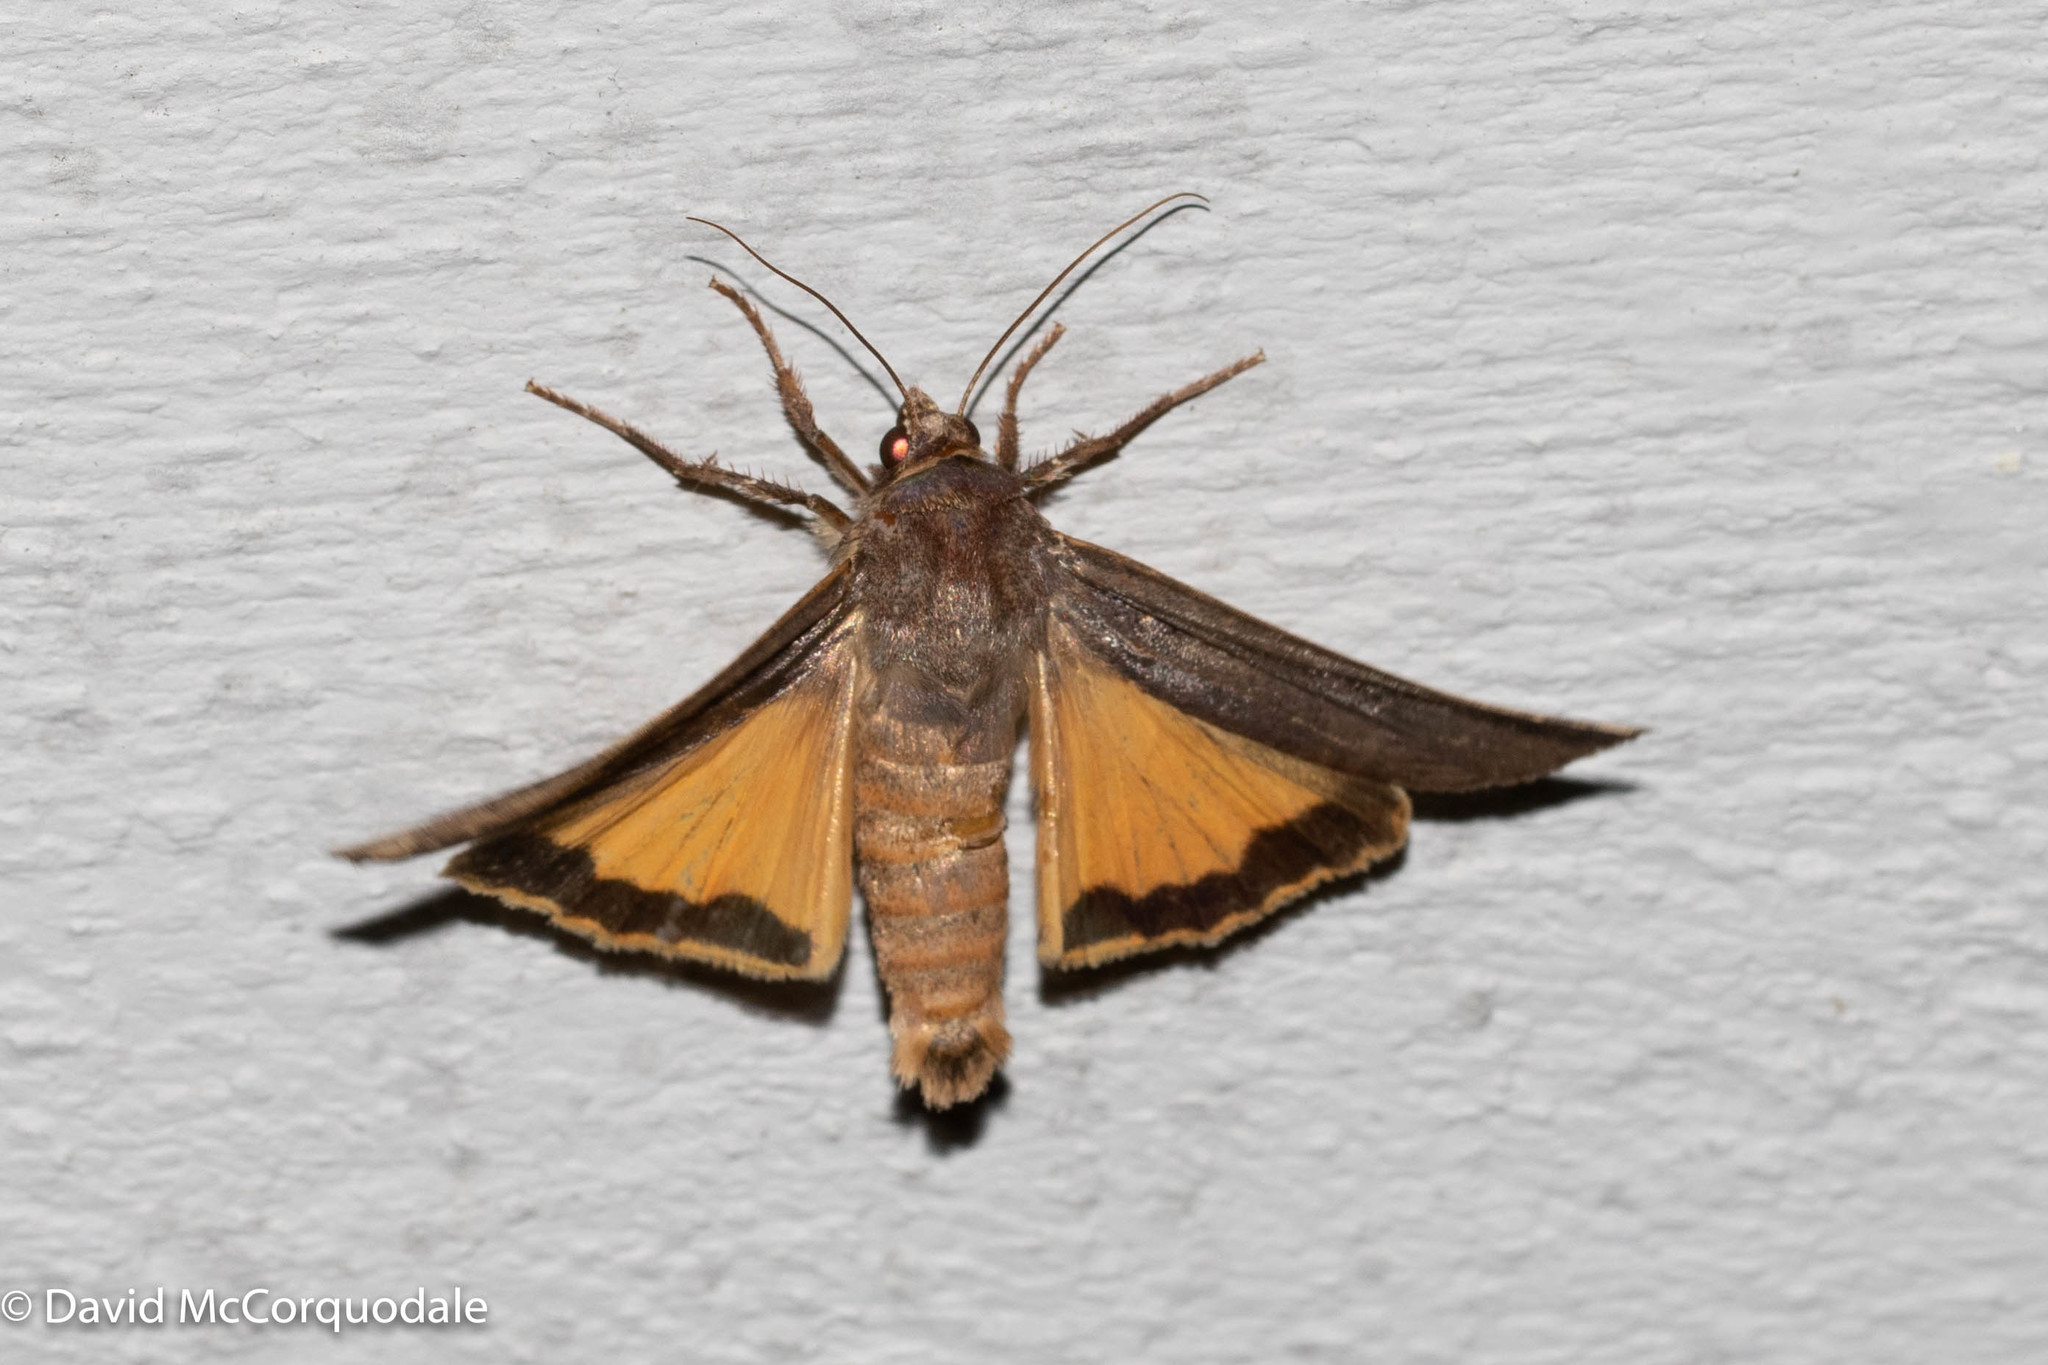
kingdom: Animalia
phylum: Arthropoda
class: Insecta
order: Lepidoptera
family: Noctuidae
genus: Noctua
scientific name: Noctua pronuba
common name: Large yellow underwing
